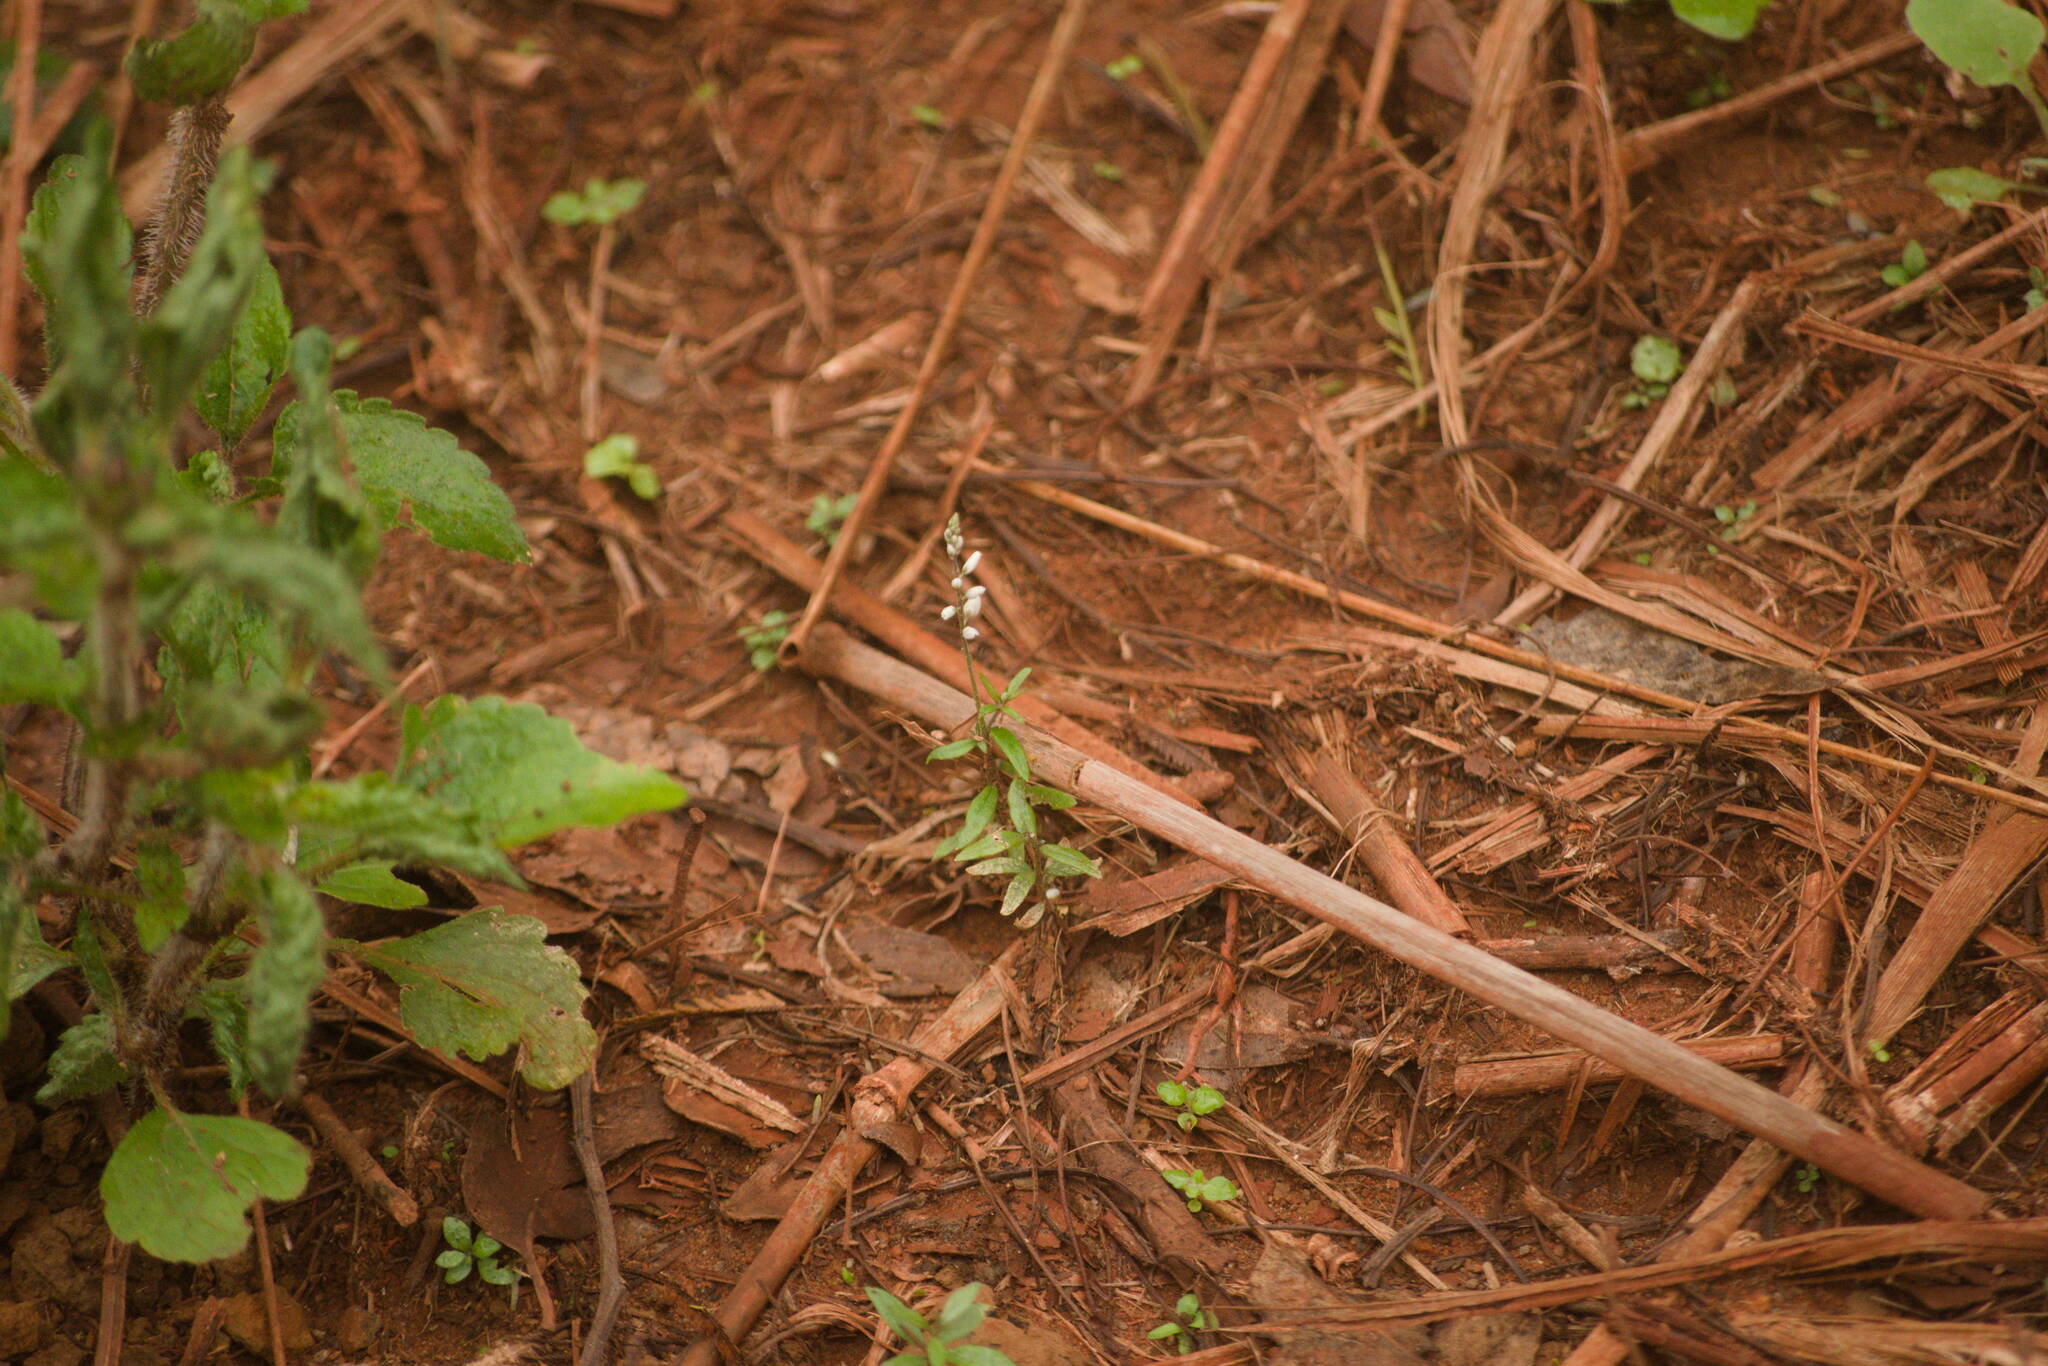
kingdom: Plantae
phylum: Tracheophyta
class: Magnoliopsida
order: Fabales
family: Polygalaceae
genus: Polygala
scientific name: Polygala paniculata
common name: Orosne
